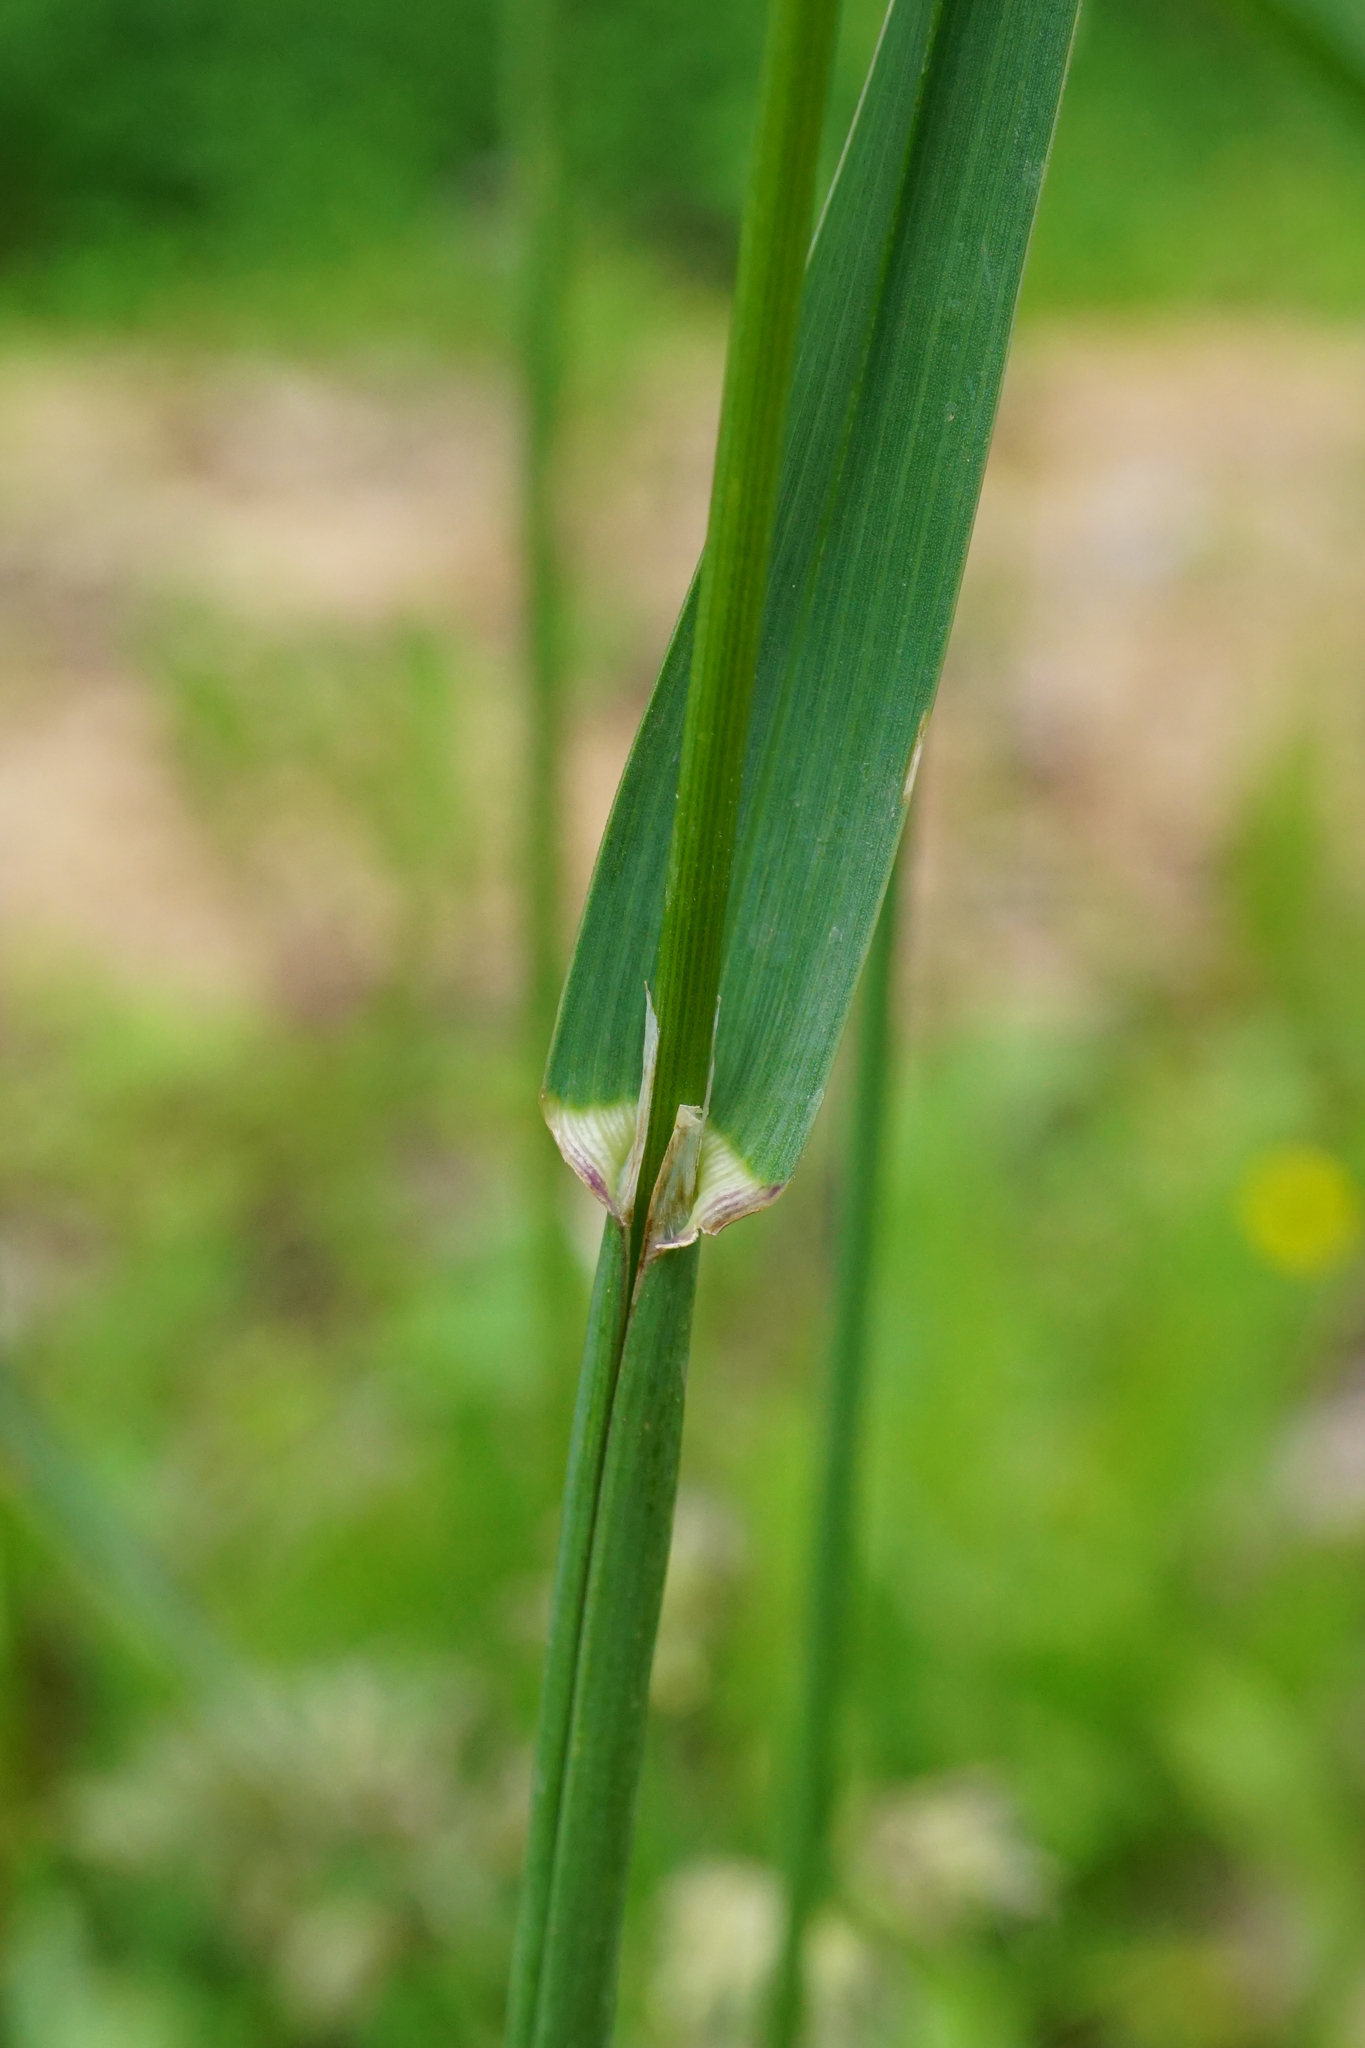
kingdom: Plantae
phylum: Tracheophyta
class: Liliopsida
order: Poales
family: Poaceae
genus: Dactylis
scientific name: Dactylis glomerata
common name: Orchardgrass
